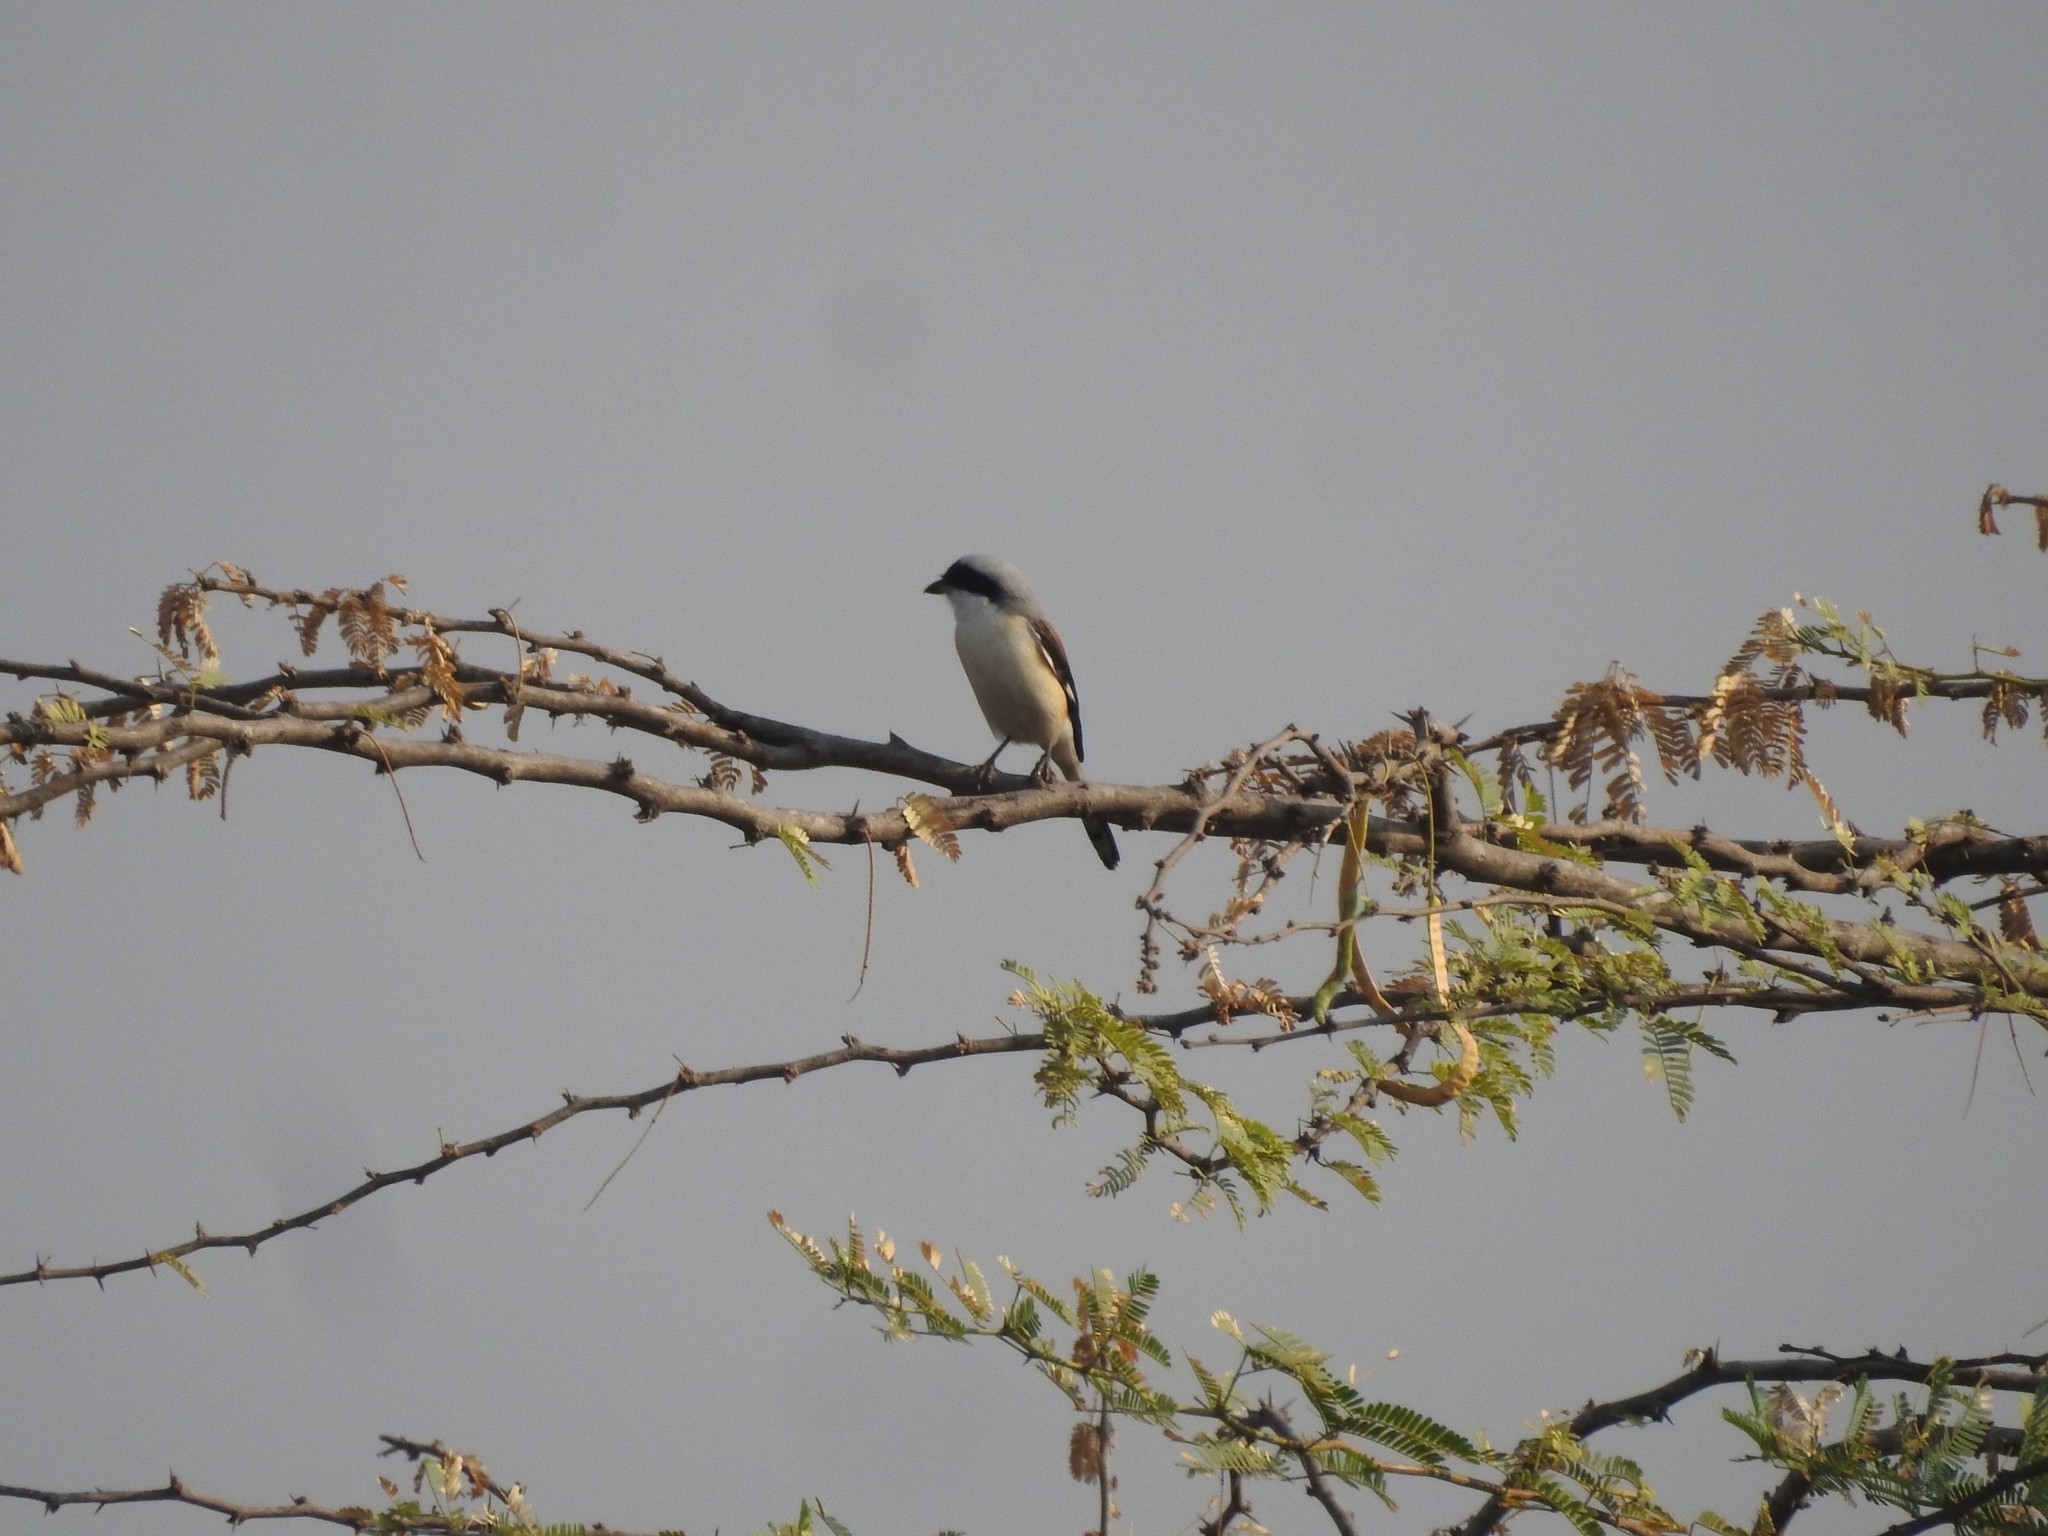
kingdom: Animalia
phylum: Chordata
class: Aves
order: Passeriformes
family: Laniidae
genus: Lanius
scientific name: Lanius vittatus
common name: Bay-backed shrike
